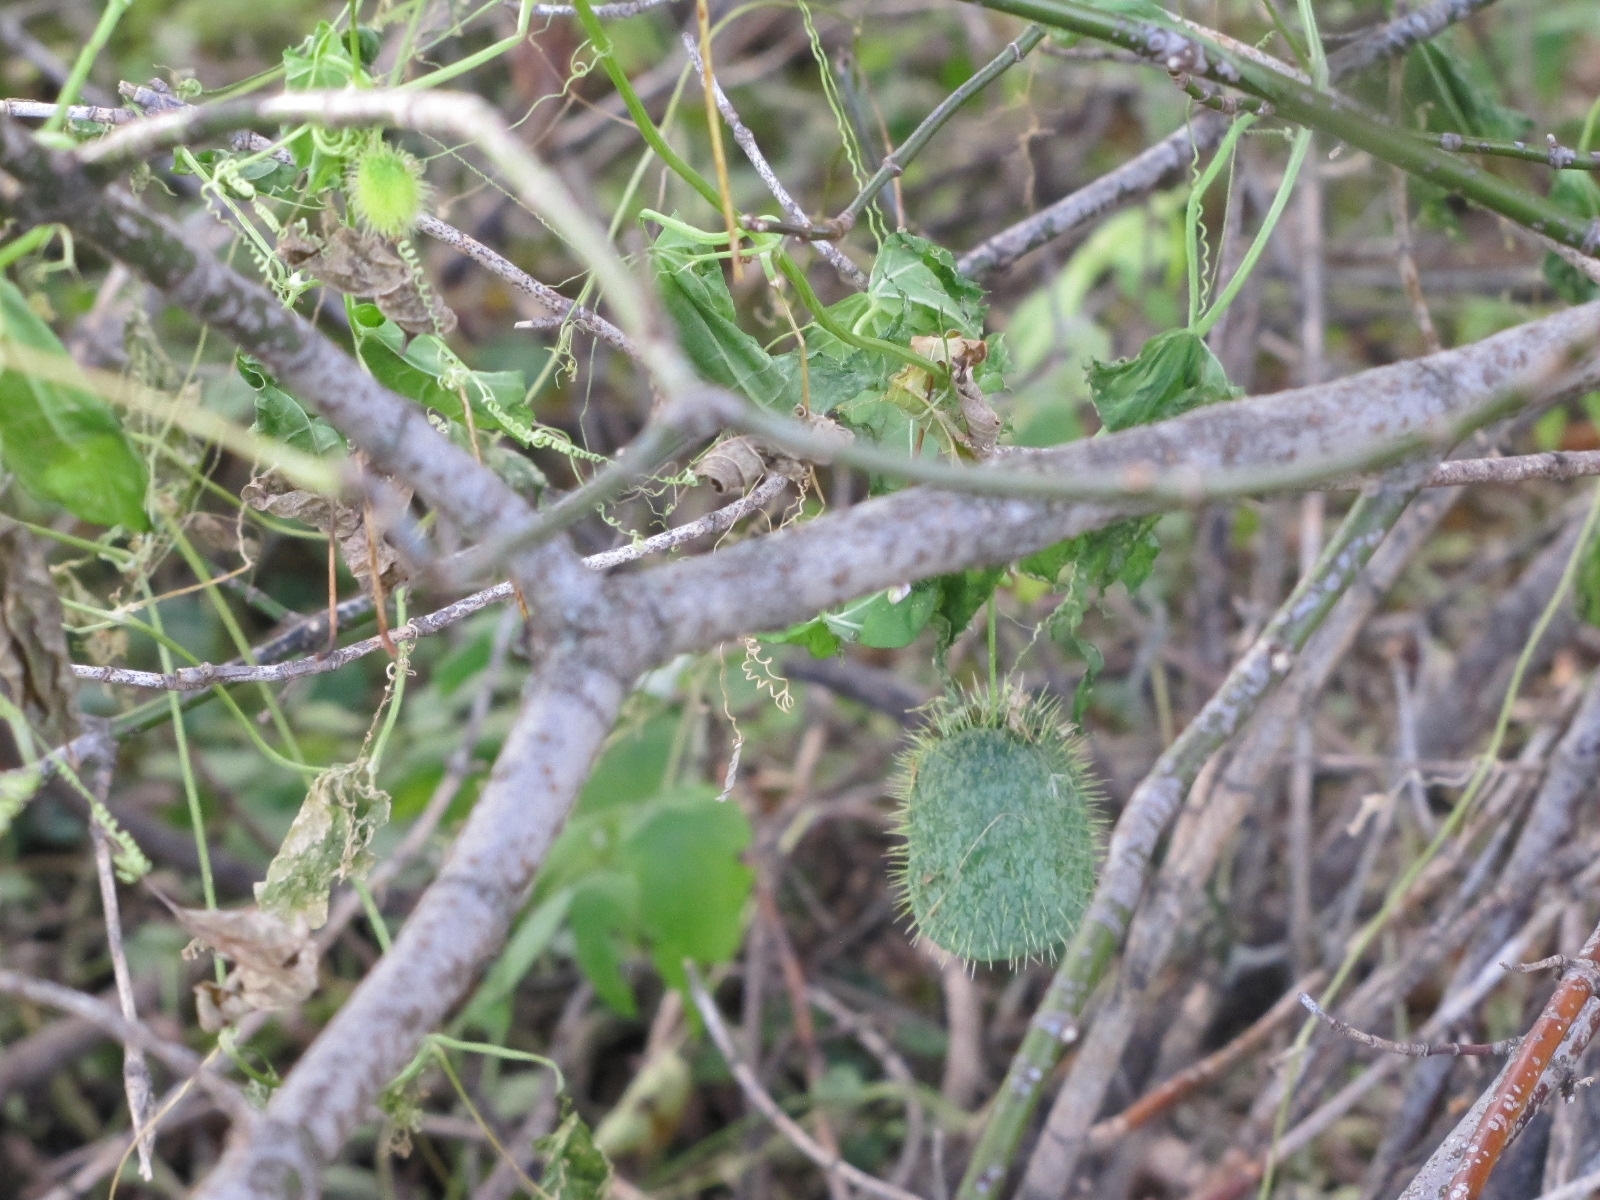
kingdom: Plantae
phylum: Tracheophyta
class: Magnoliopsida
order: Cucurbitales
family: Cucurbitaceae
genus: Echinocystis
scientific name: Echinocystis lobata
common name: Wild cucumber
